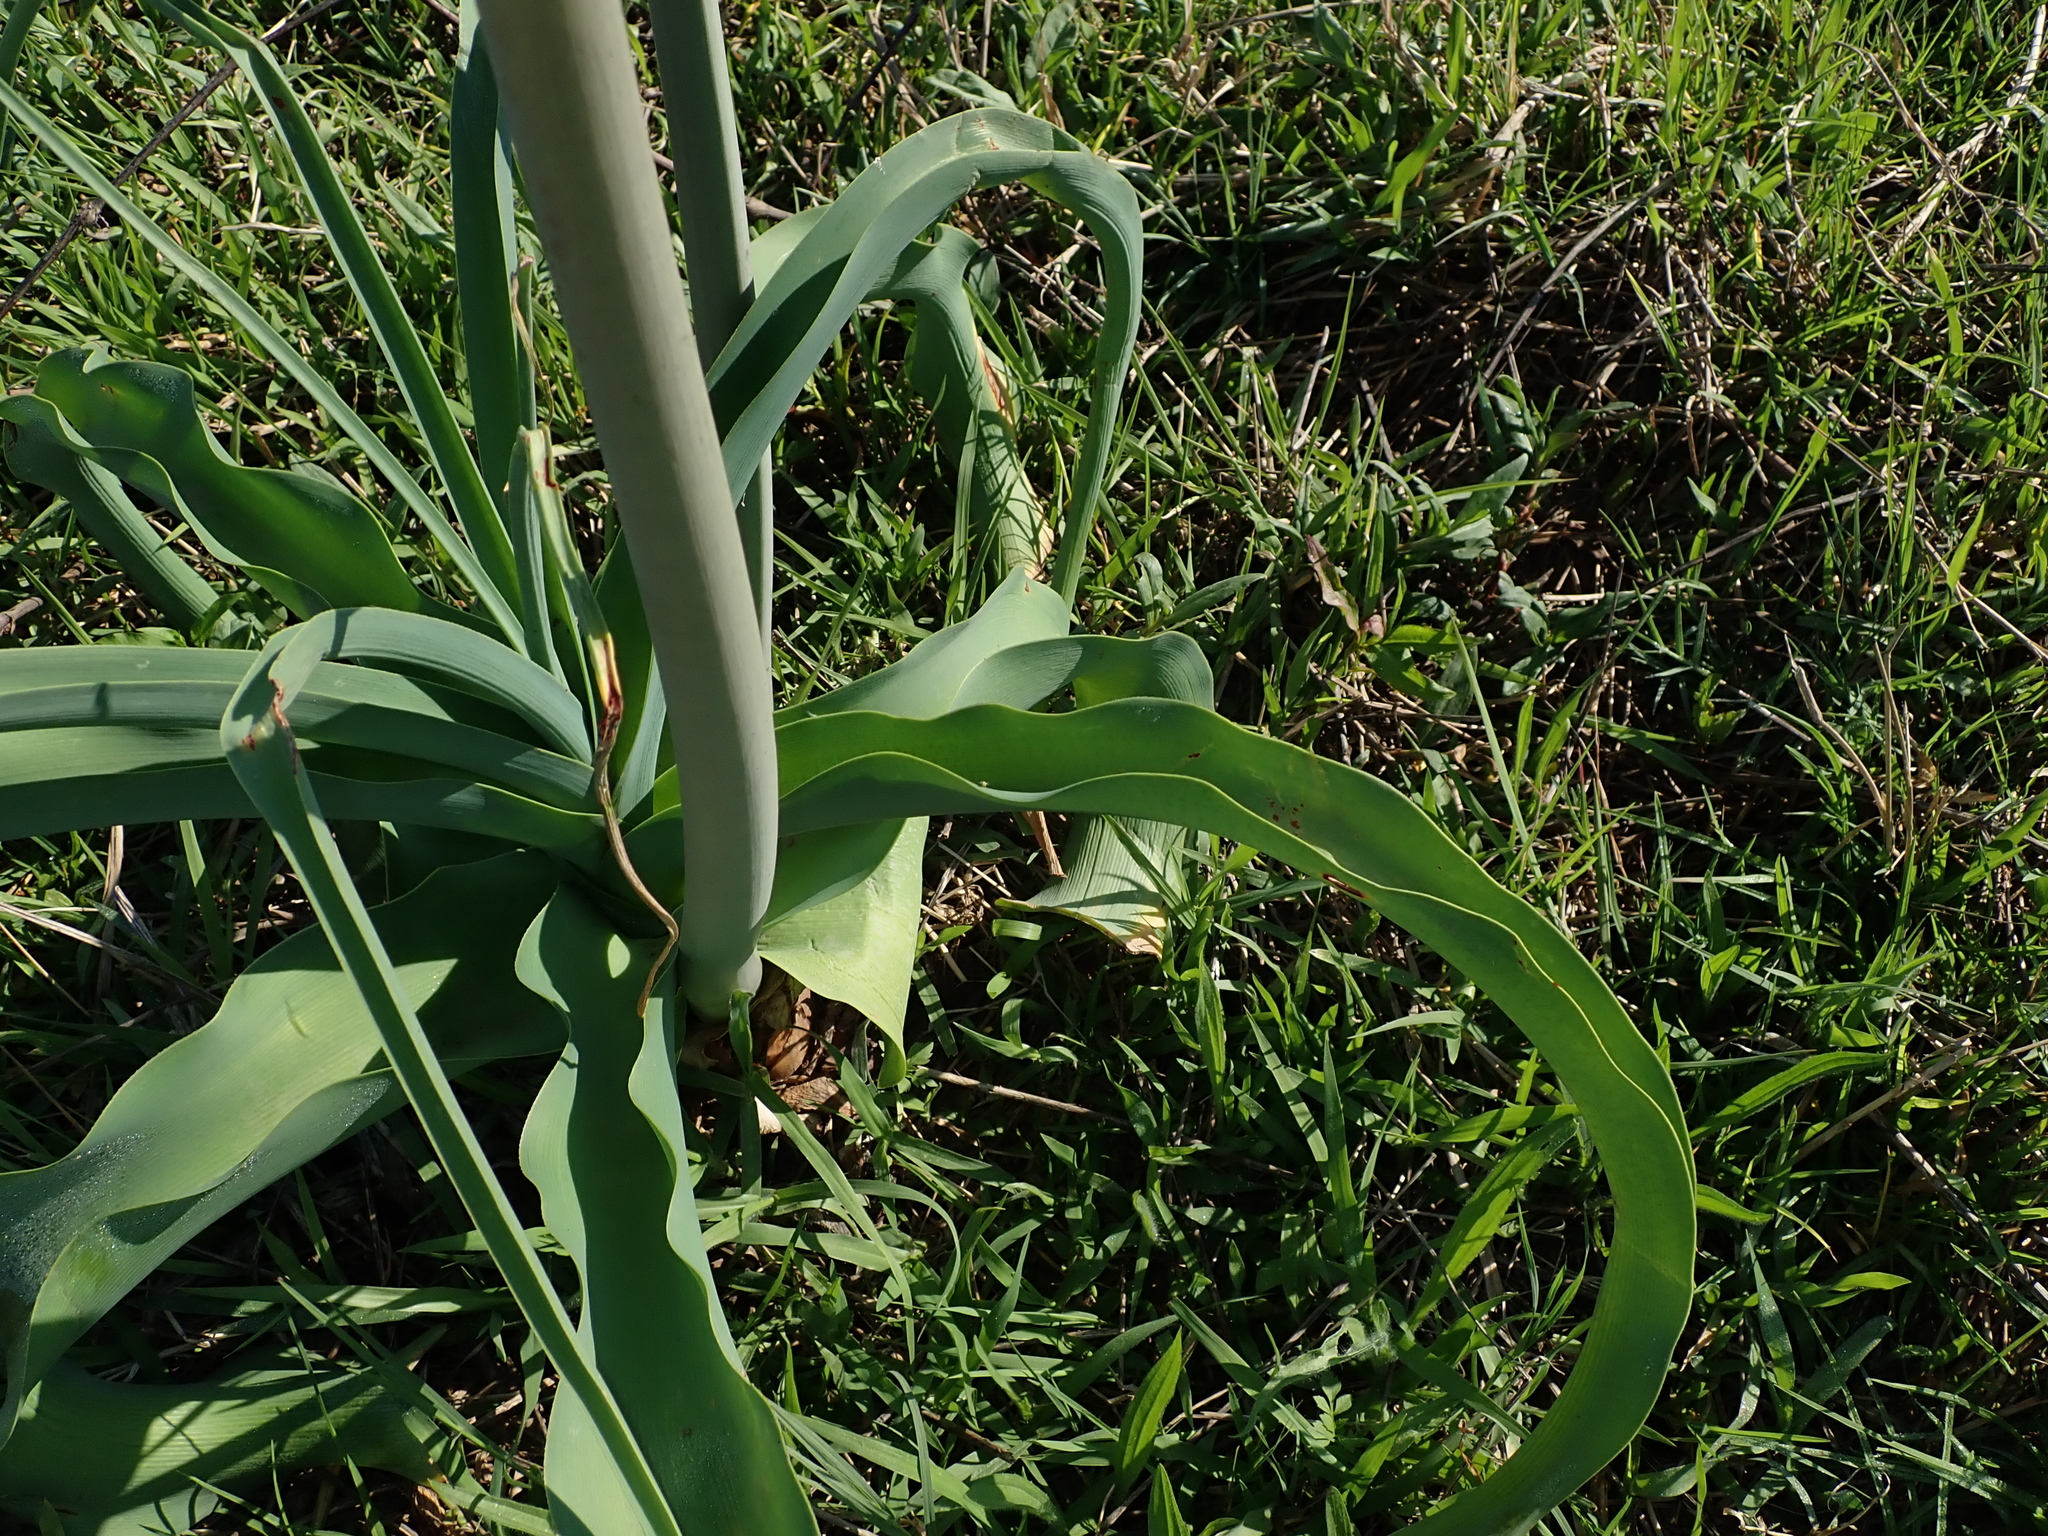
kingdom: Plantae
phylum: Tracheophyta
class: Liliopsida
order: Asparagales
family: Amaryllidaceae
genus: Crinum
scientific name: Crinum bulbispermum
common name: Hardy swamplily
